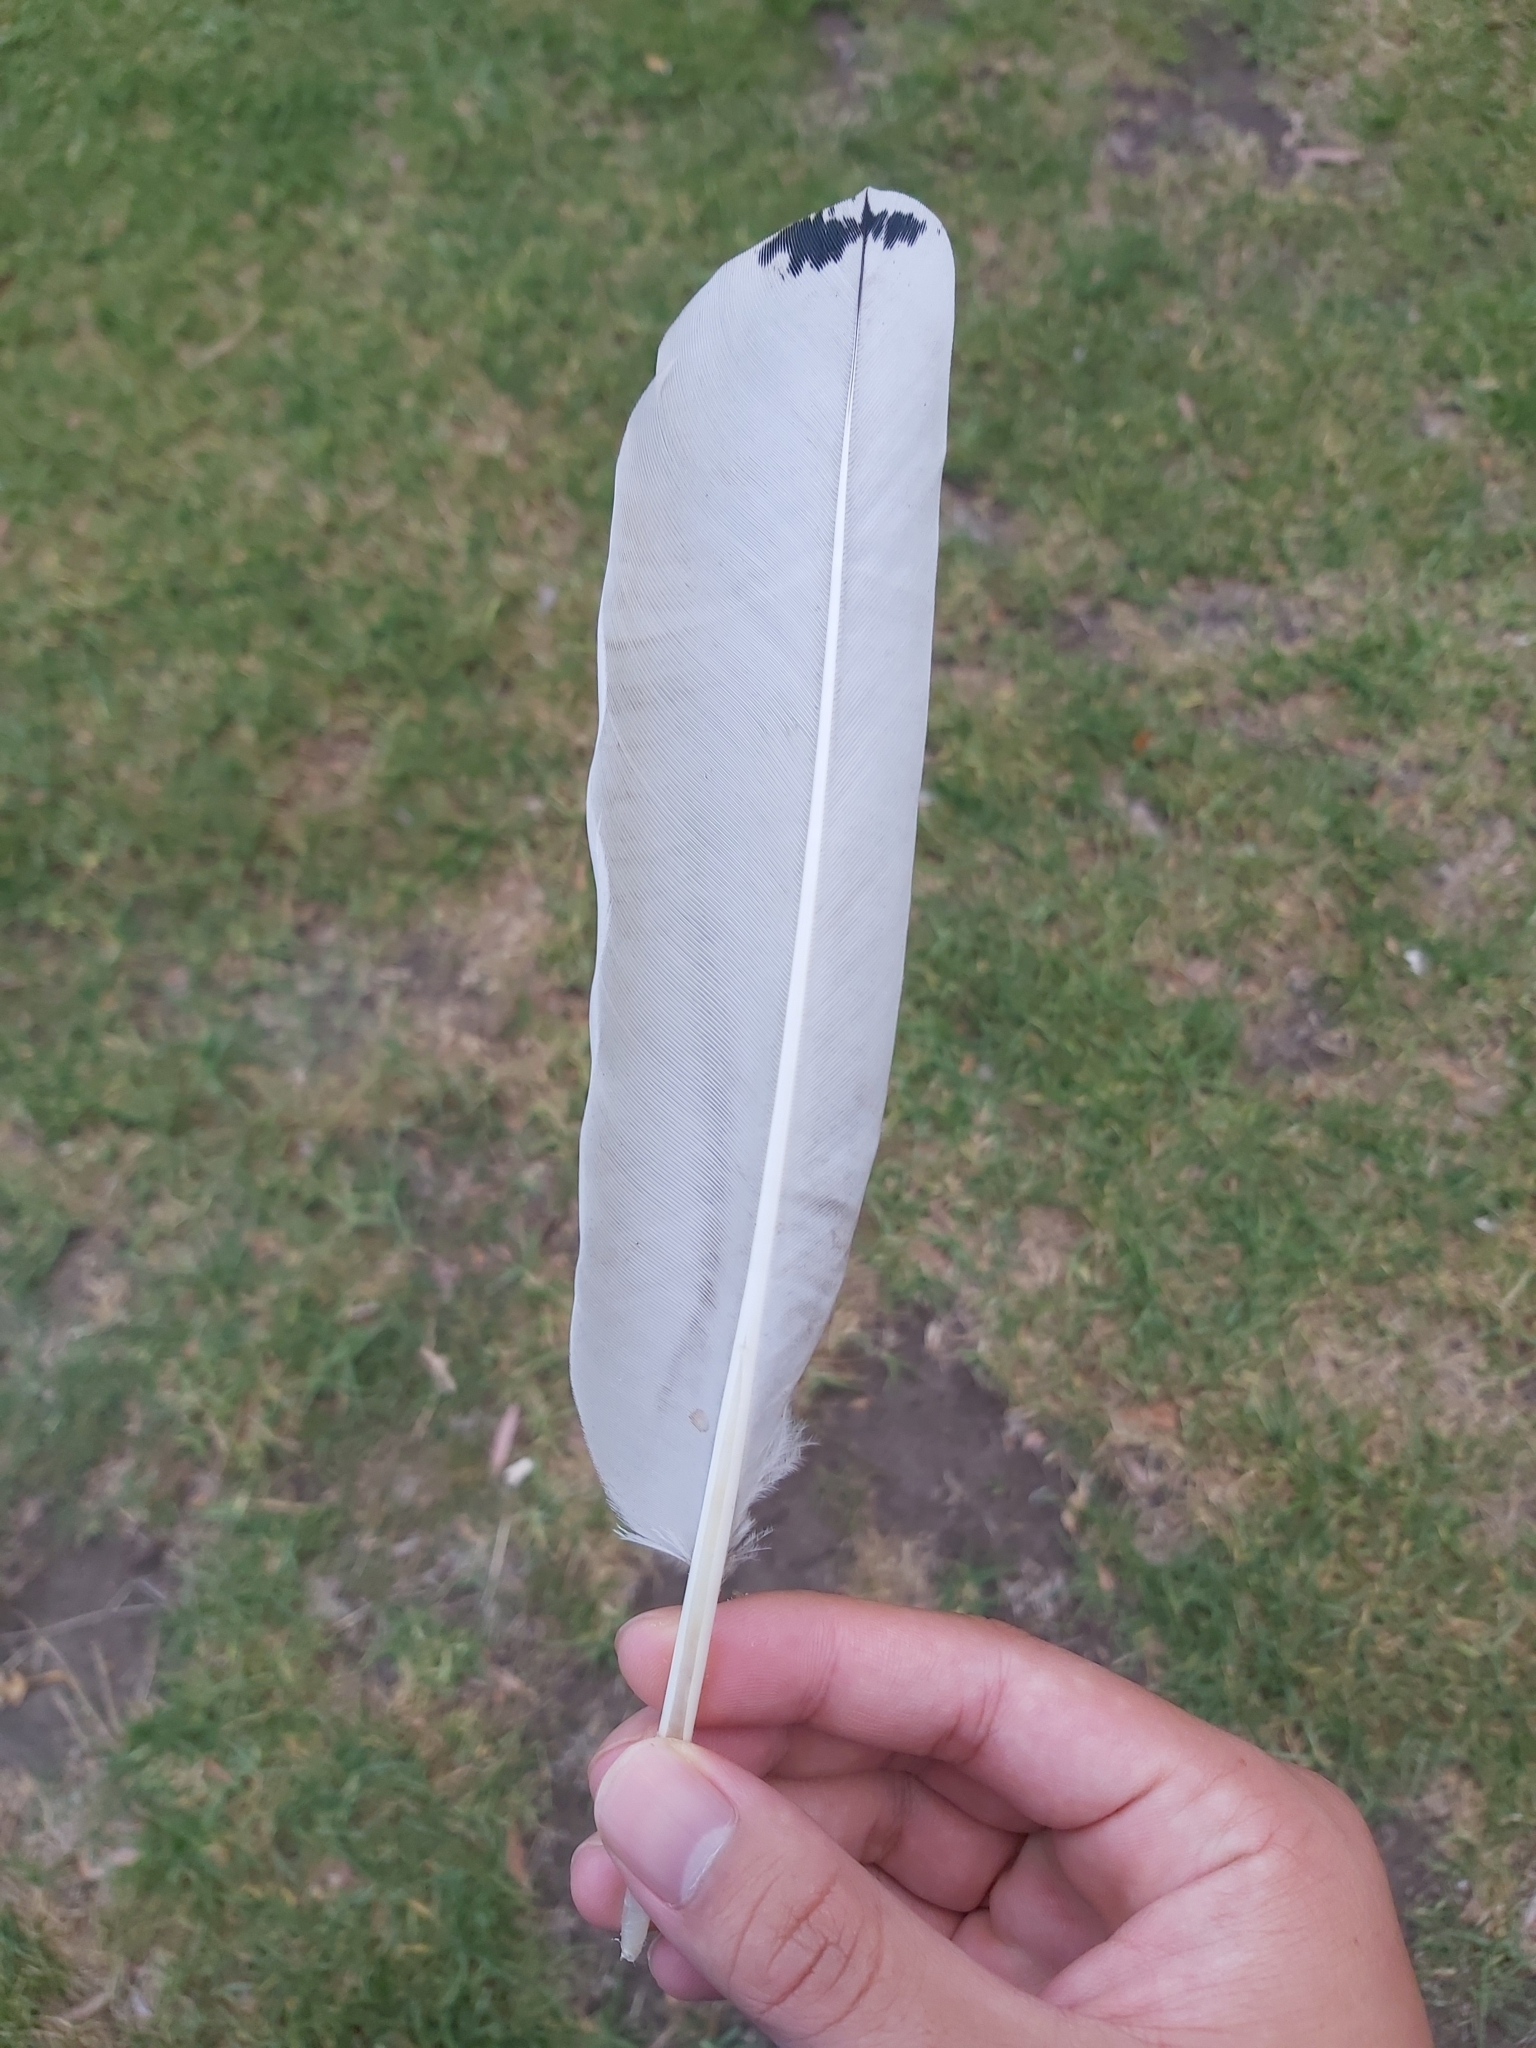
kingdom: Animalia
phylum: Chordata
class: Aves
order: Pelecaniformes
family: Threskiornithidae
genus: Threskiornis
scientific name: Threskiornis molucca
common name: Australian white ibis
